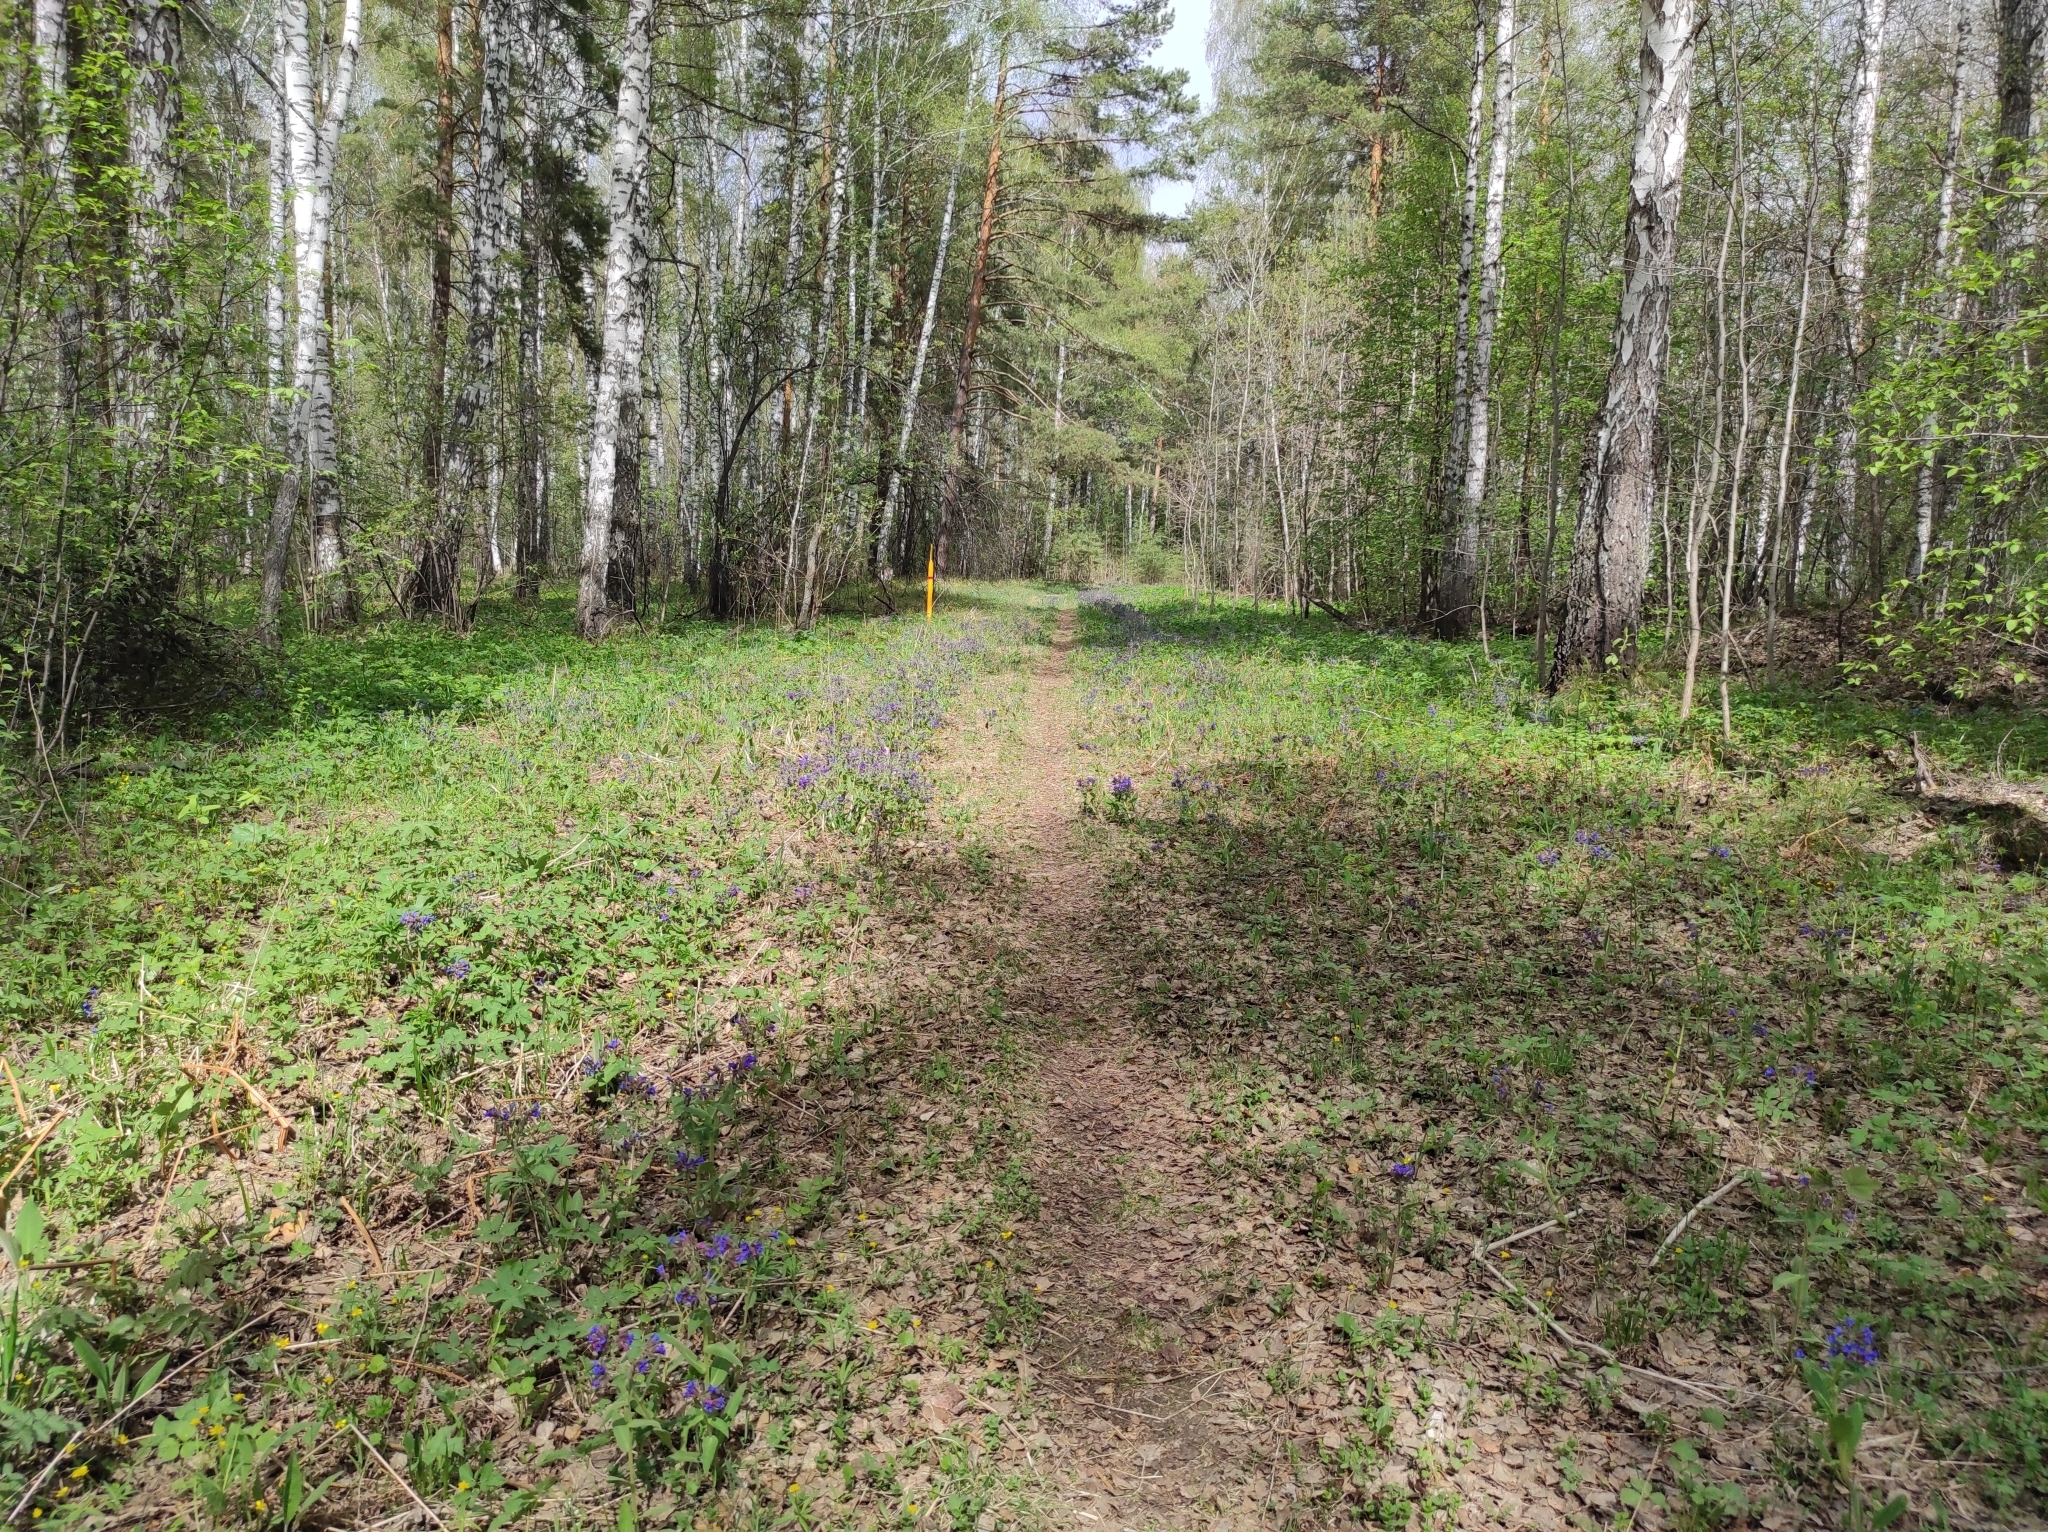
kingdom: Plantae
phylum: Tracheophyta
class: Magnoliopsida
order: Malpighiales
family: Violaceae
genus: Viola
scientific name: Viola uniflora
